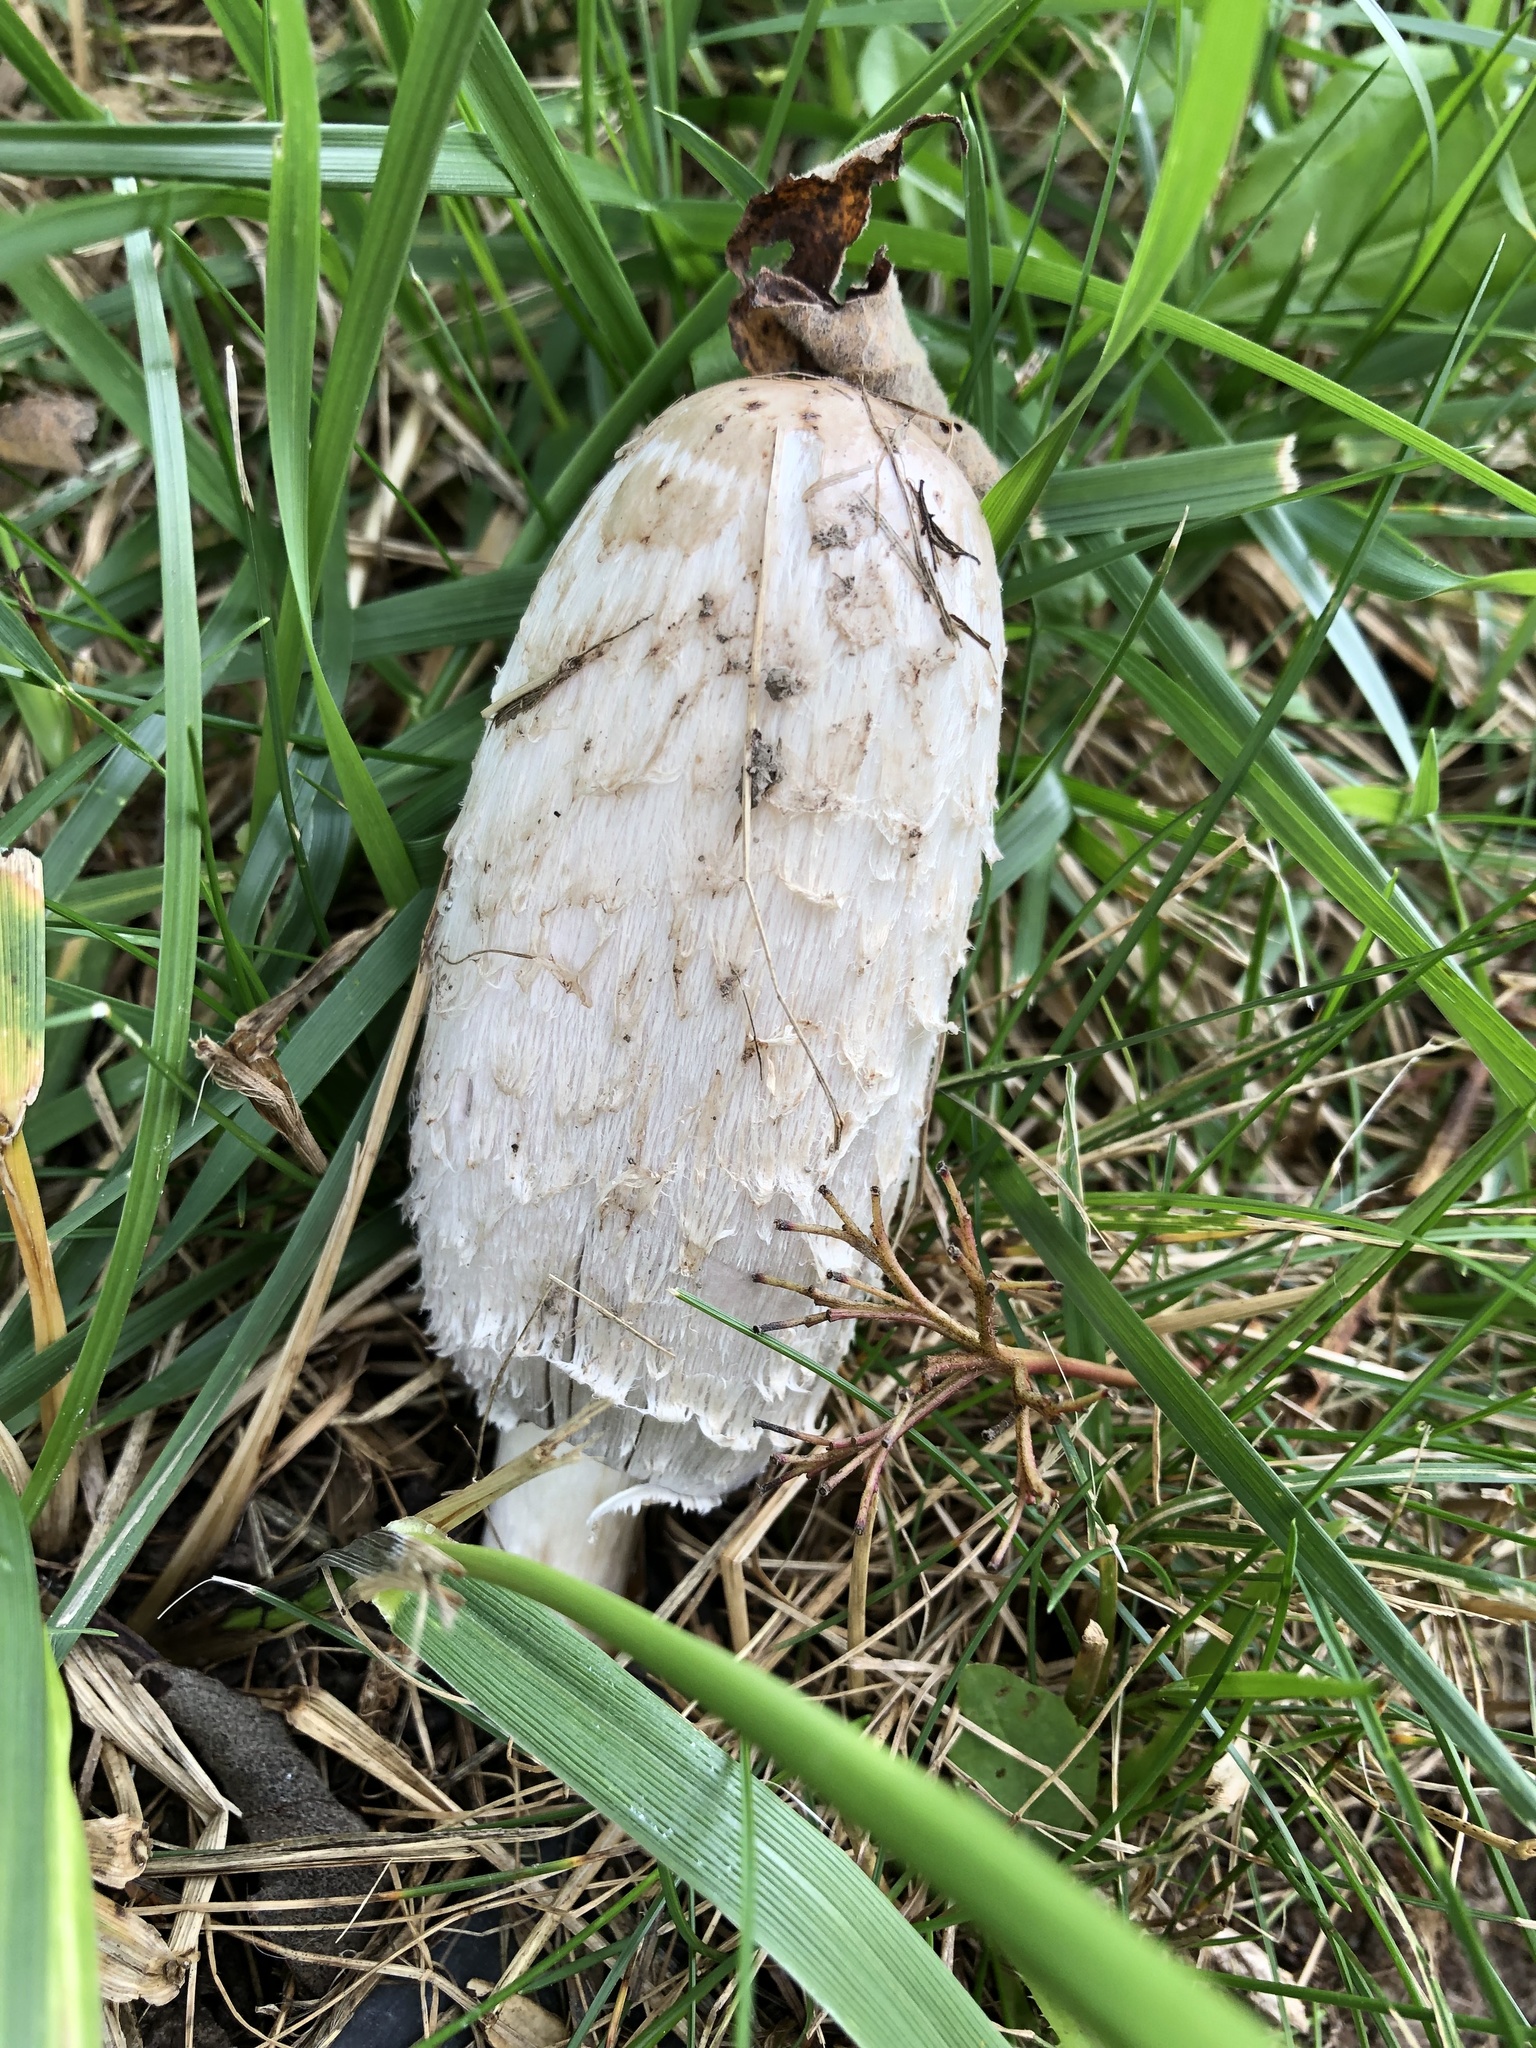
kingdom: Fungi
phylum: Basidiomycota
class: Agaricomycetes
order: Agaricales
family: Agaricaceae
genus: Coprinus
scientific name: Coprinus comatus
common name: Lawyer's wig
